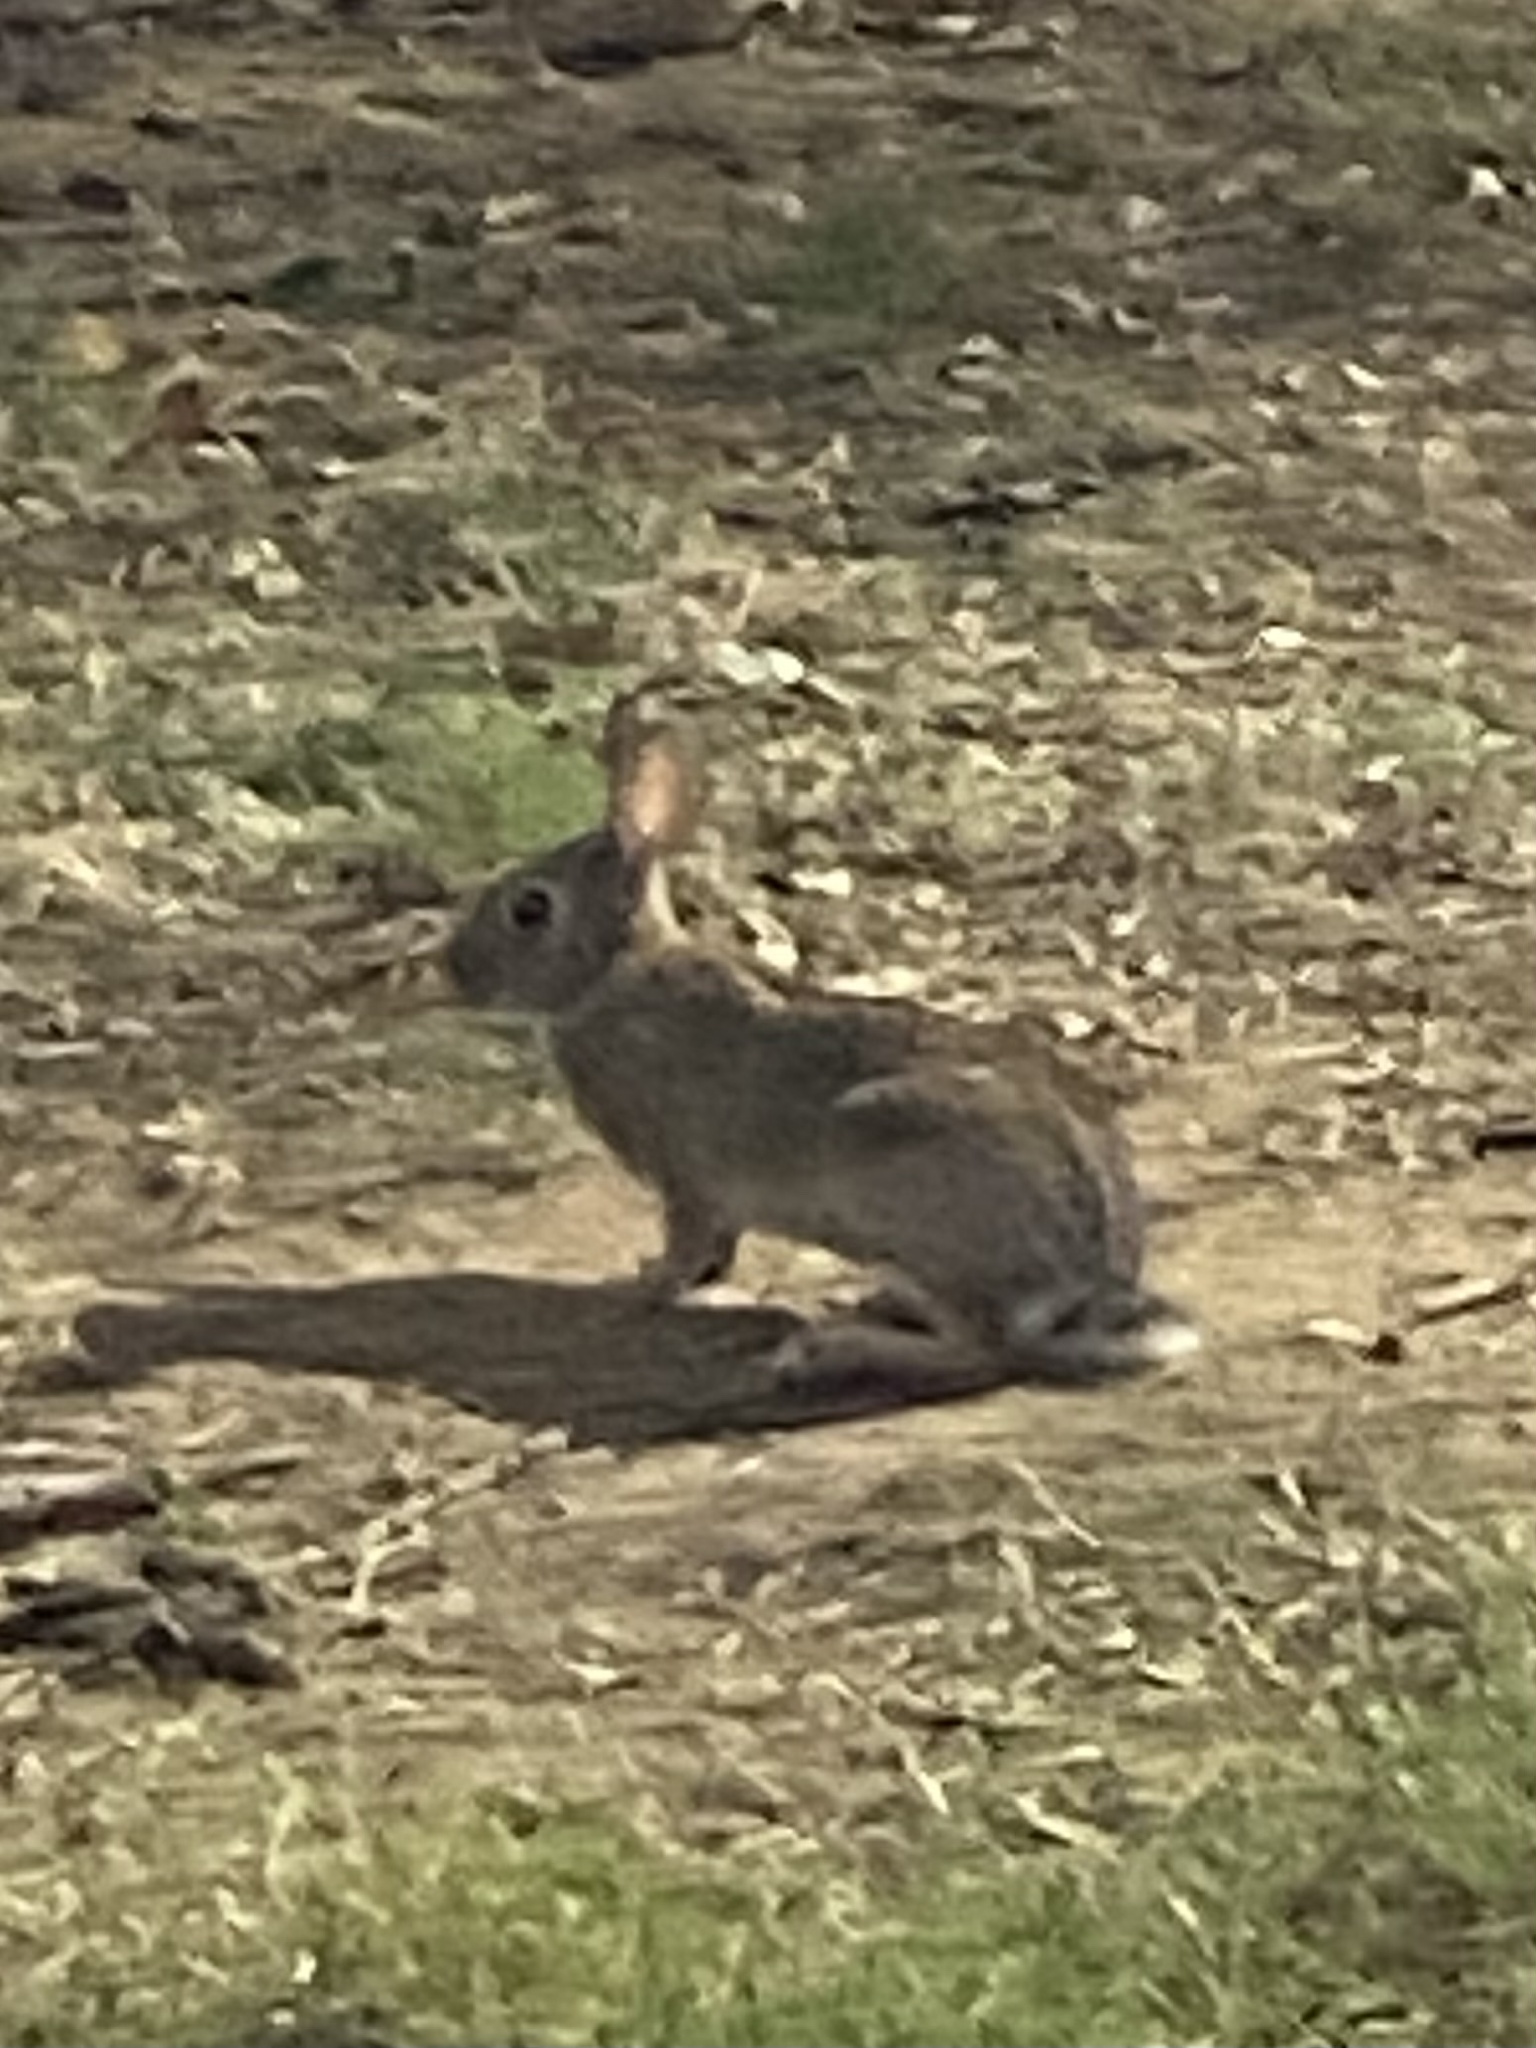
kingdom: Animalia
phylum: Chordata
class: Mammalia
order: Lagomorpha
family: Leporidae
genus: Sylvilagus
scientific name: Sylvilagus floridanus
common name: Eastern cottontail
